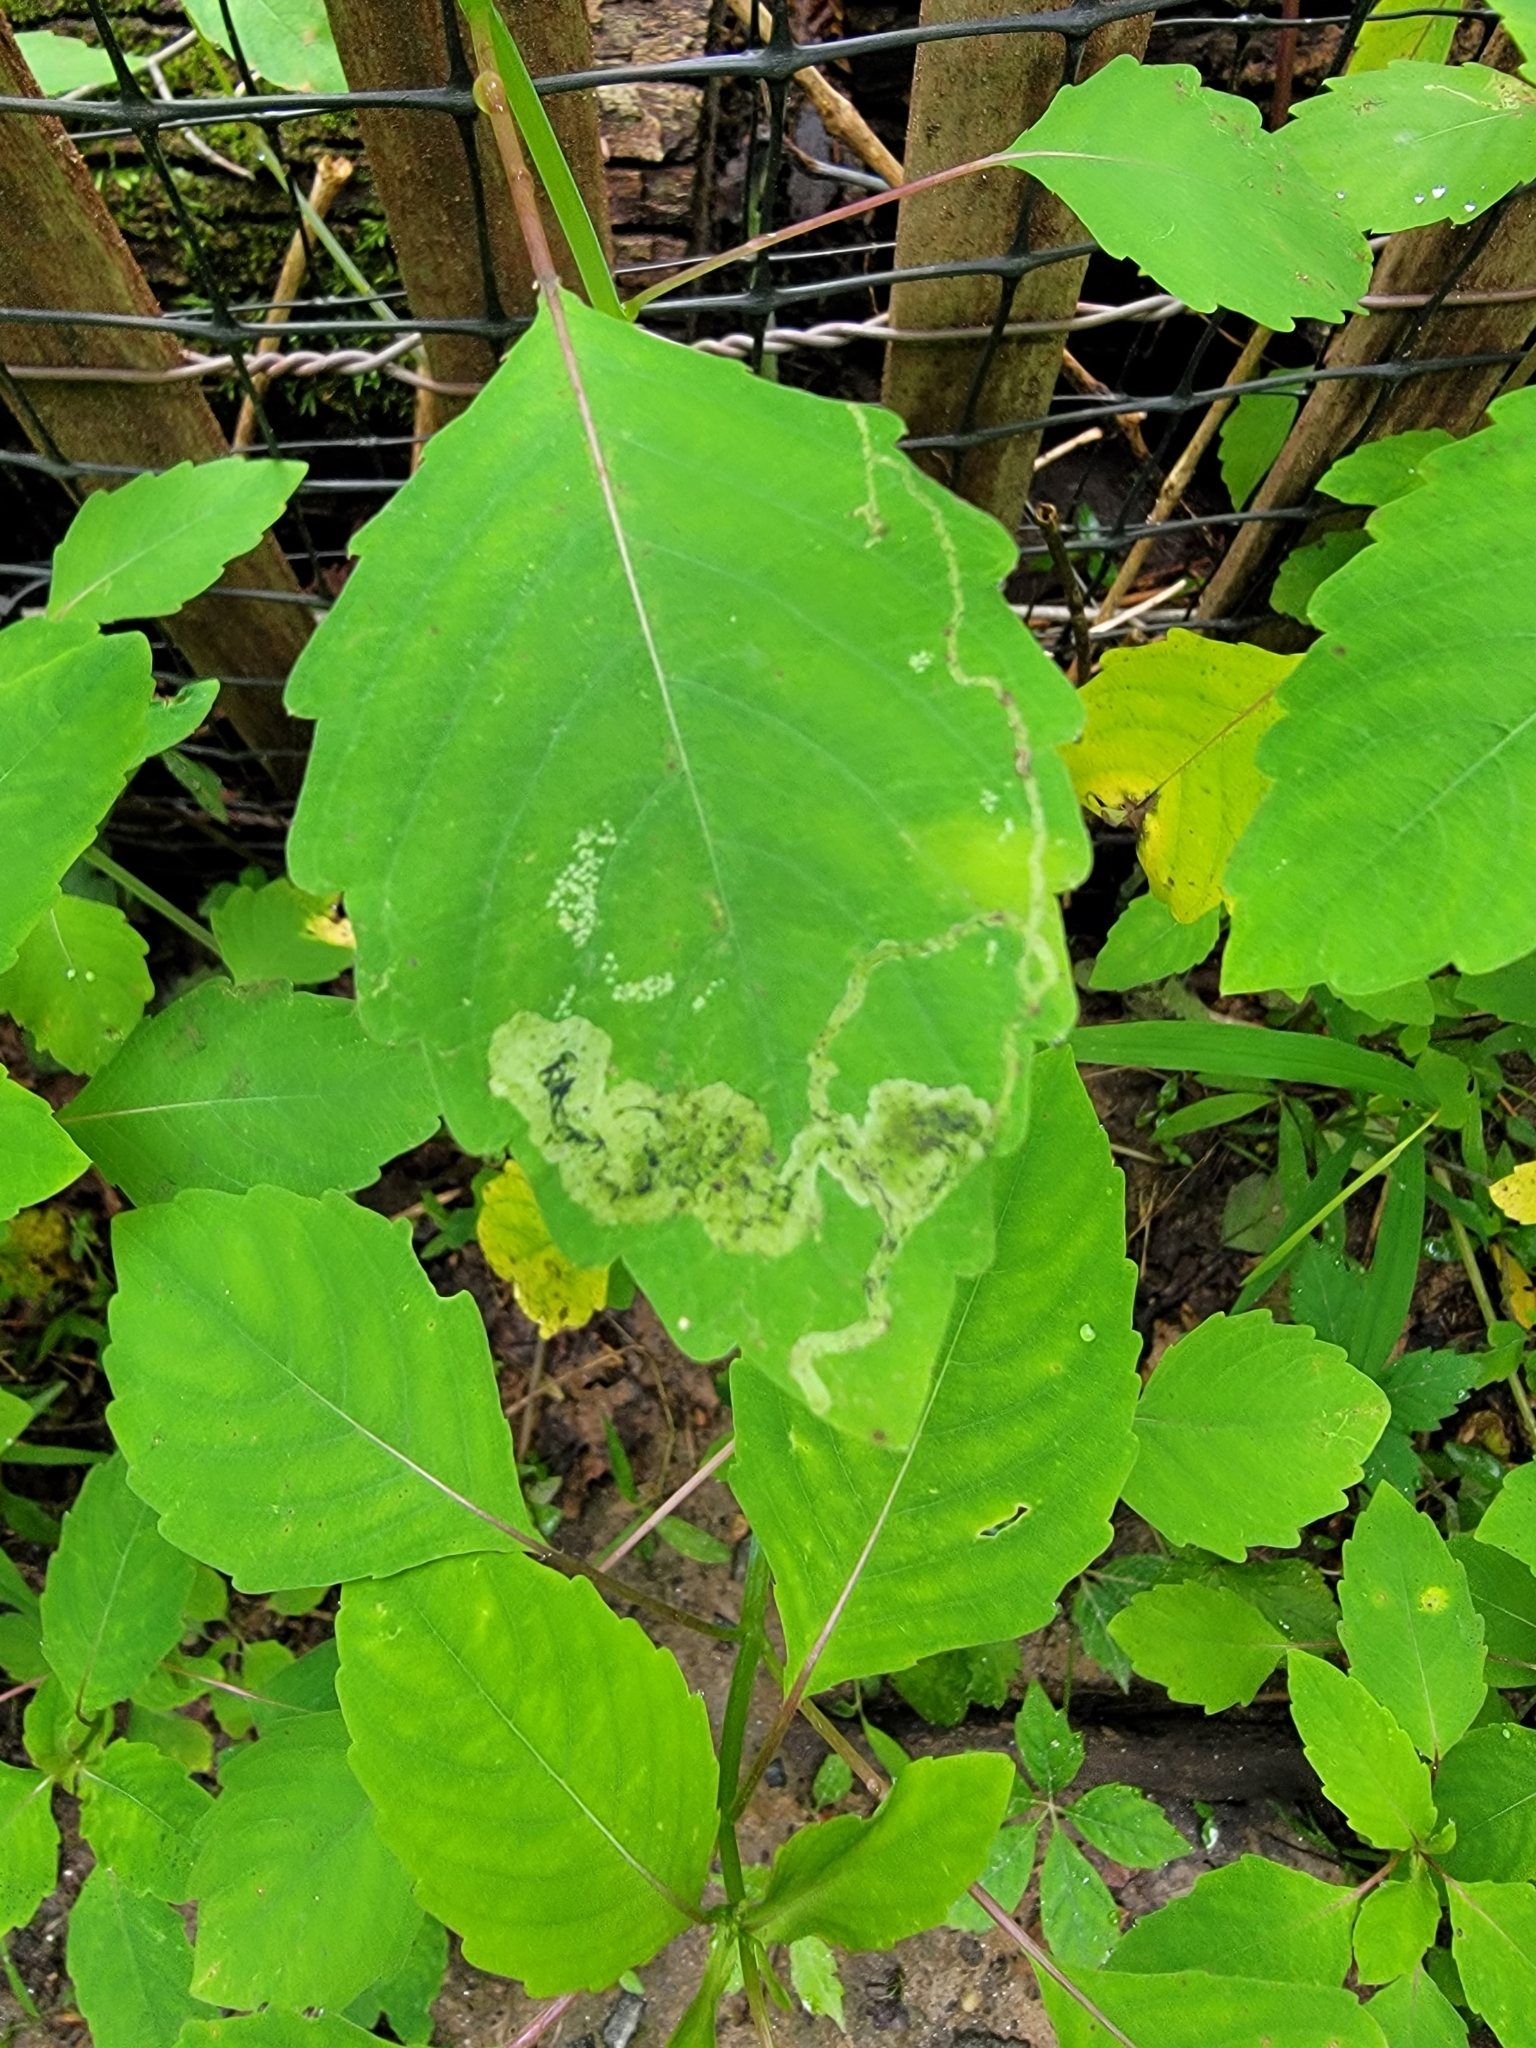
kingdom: Animalia
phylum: Arthropoda
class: Insecta
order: Diptera
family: Agromyzidae
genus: Phytoliriomyza
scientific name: Phytoliriomyza melampyga
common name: Jewelweed leaf-miner fly
